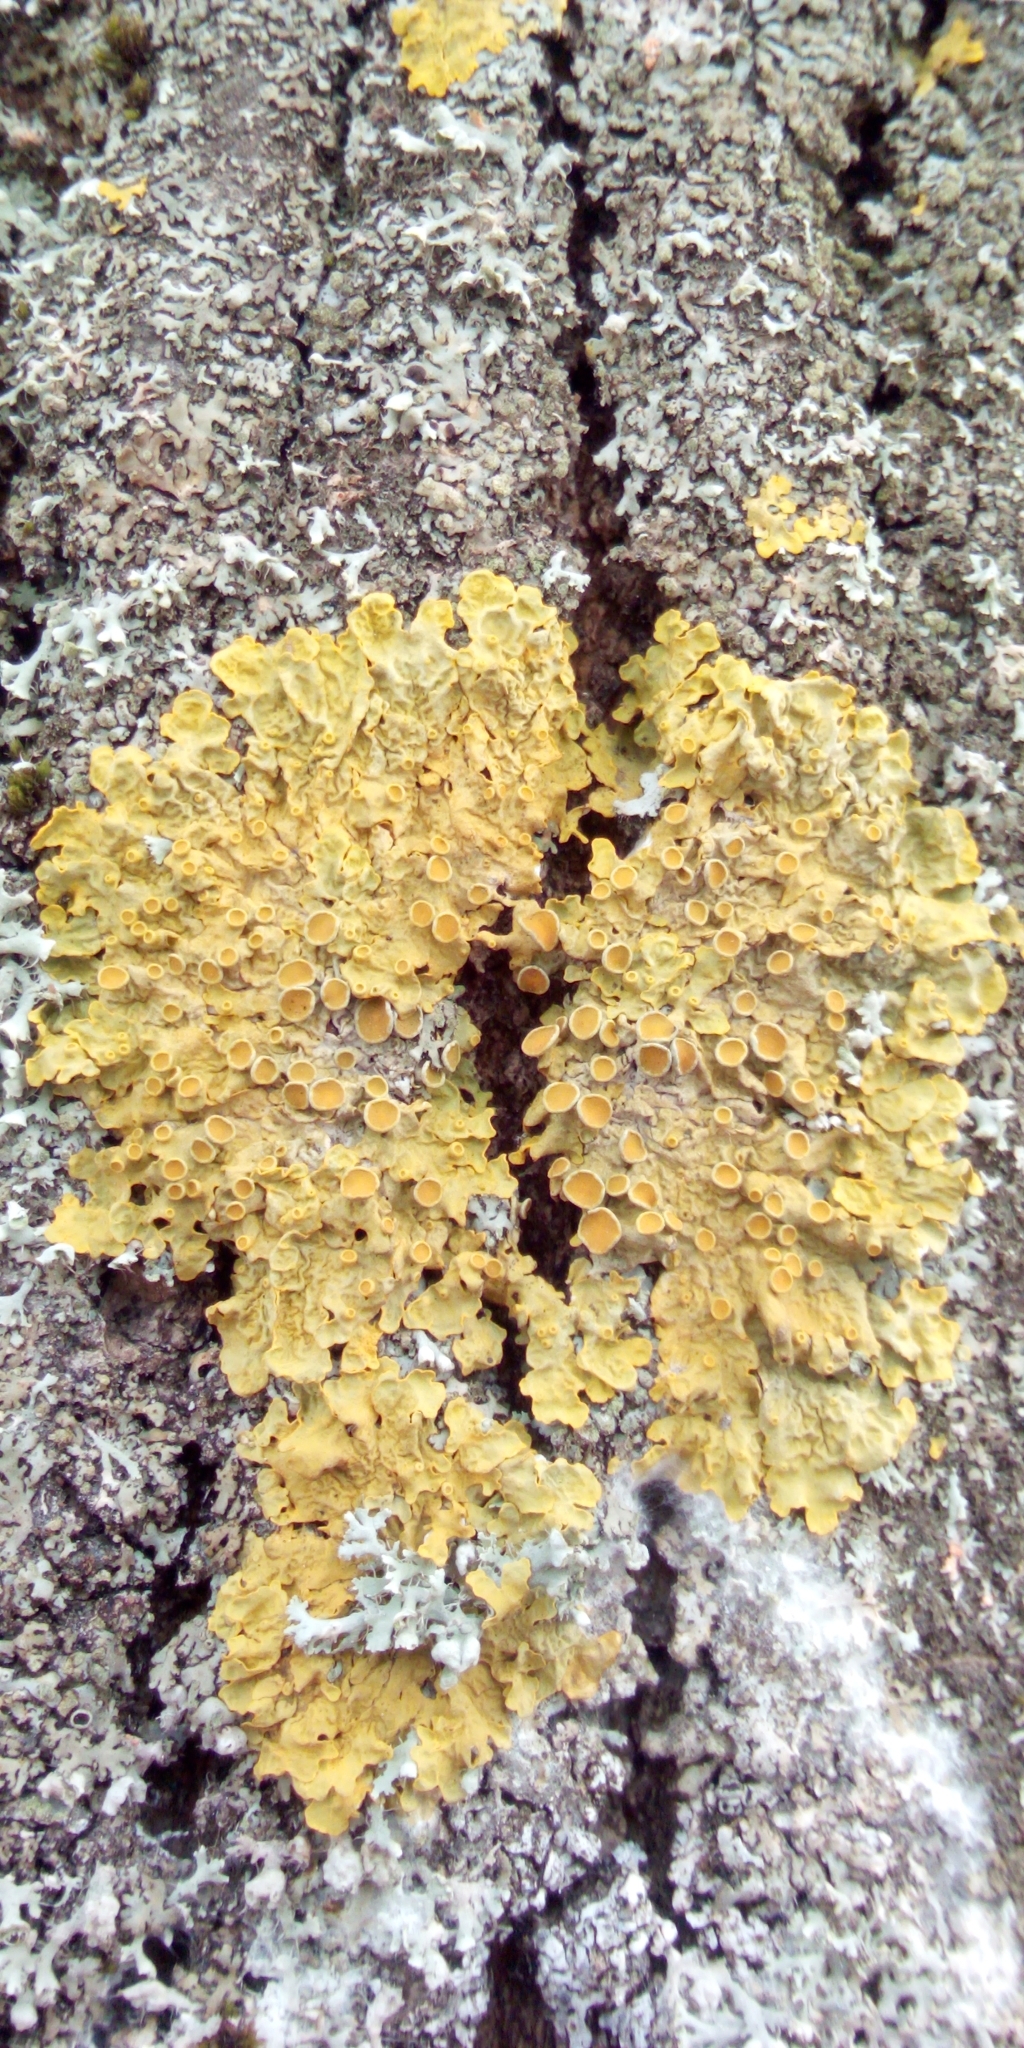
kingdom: Fungi
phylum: Ascomycota
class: Lecanoromycetes
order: Teloschistales
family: Teloschistaceae
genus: Xanthoria
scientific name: Xanthoria parietina
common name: Common orange lichen
